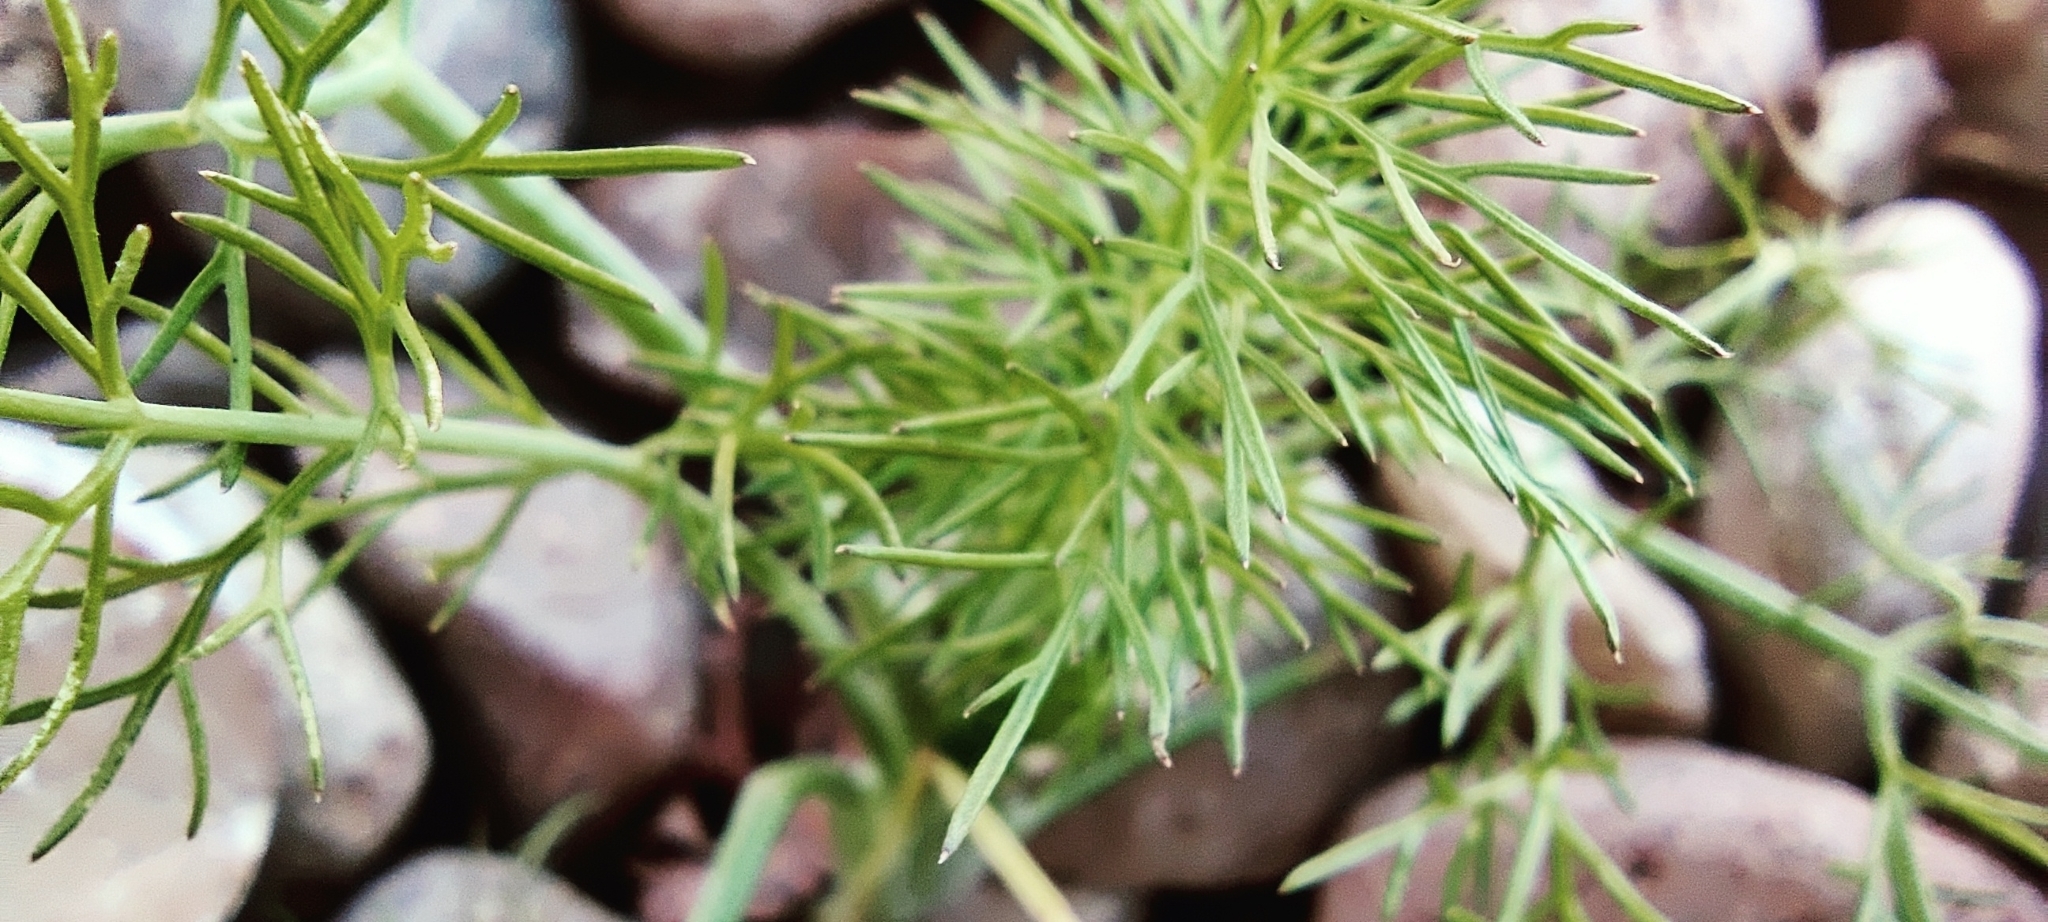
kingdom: Plantae
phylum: Tracheophyta
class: Magnoliopsida
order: Apiales
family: Apiaceae
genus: Foeniculum
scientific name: Foeniculum vulgare
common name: Fennel
